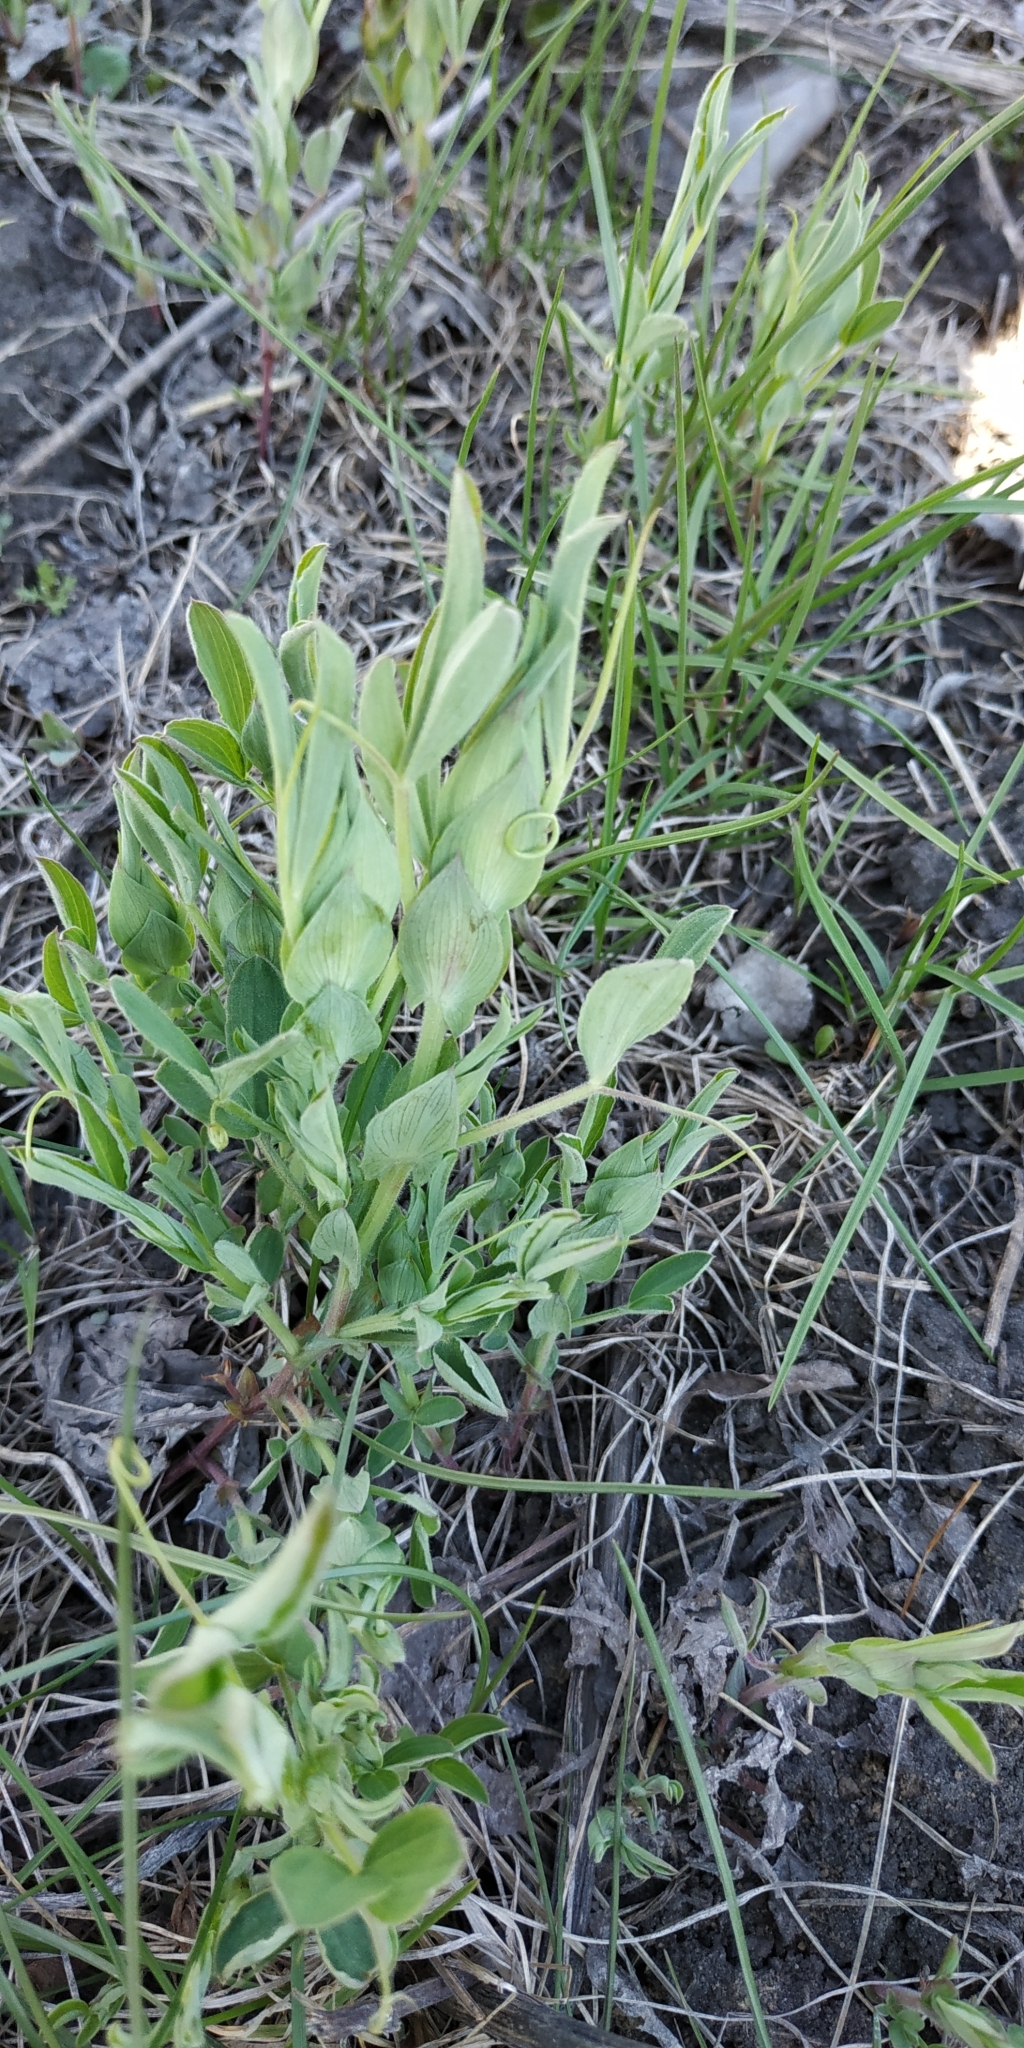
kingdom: Plantae
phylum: Tracheophyta
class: Magnoliopsida
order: Fabales
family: Fabaceae
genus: Lathyrus
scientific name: Lathyrus pratensis
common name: Meadow vetchling
